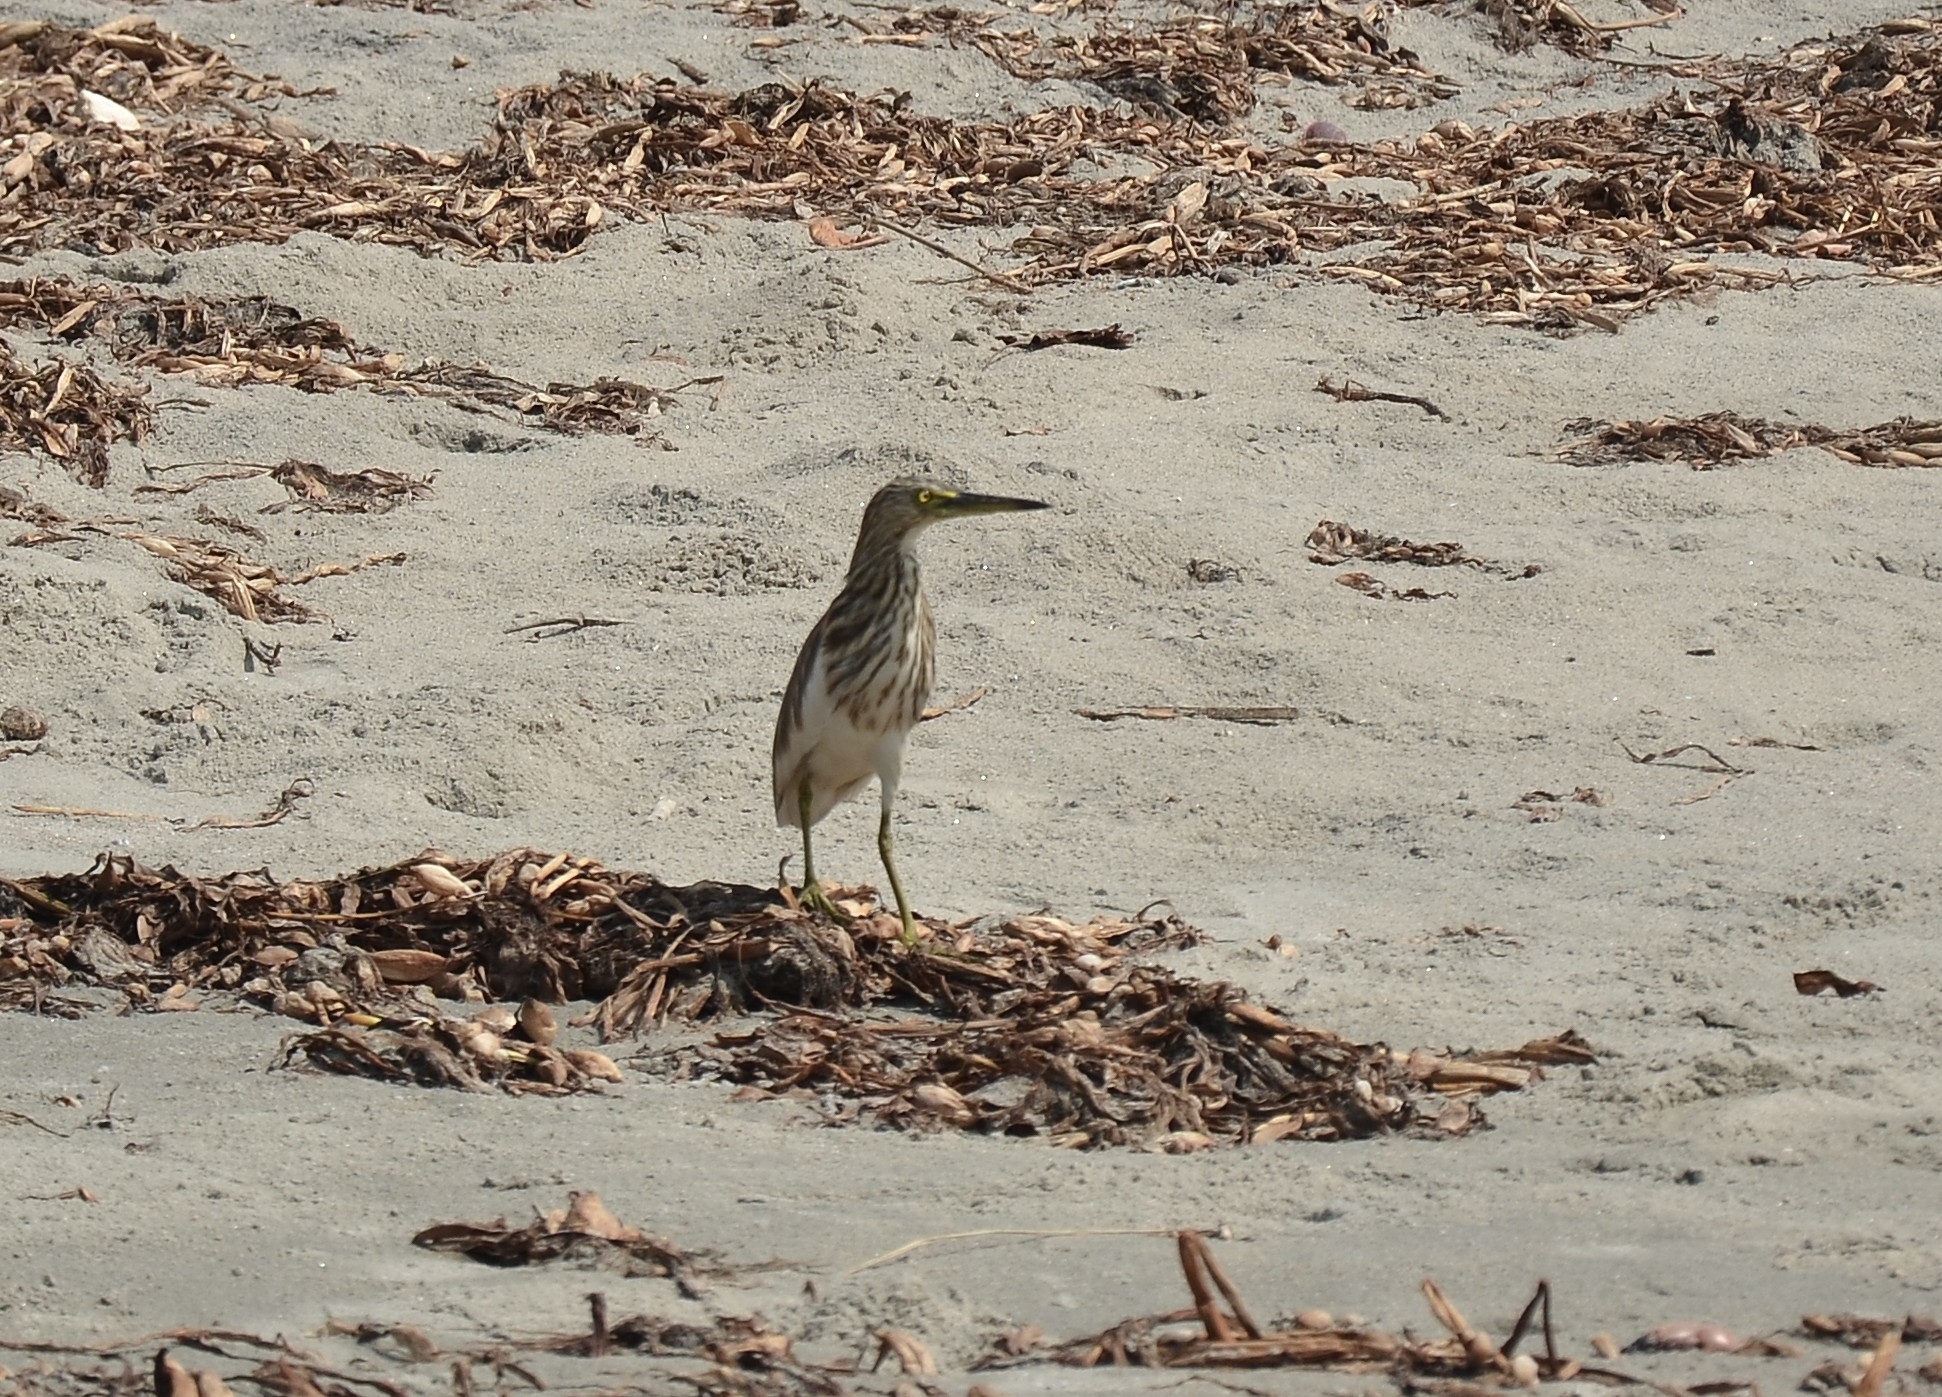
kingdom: Animalia
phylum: Chordata
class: Aves
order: Pelecaniformes
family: Ardeidae
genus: Ardeola
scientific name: Ardeola grayii
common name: Indian pond heron
